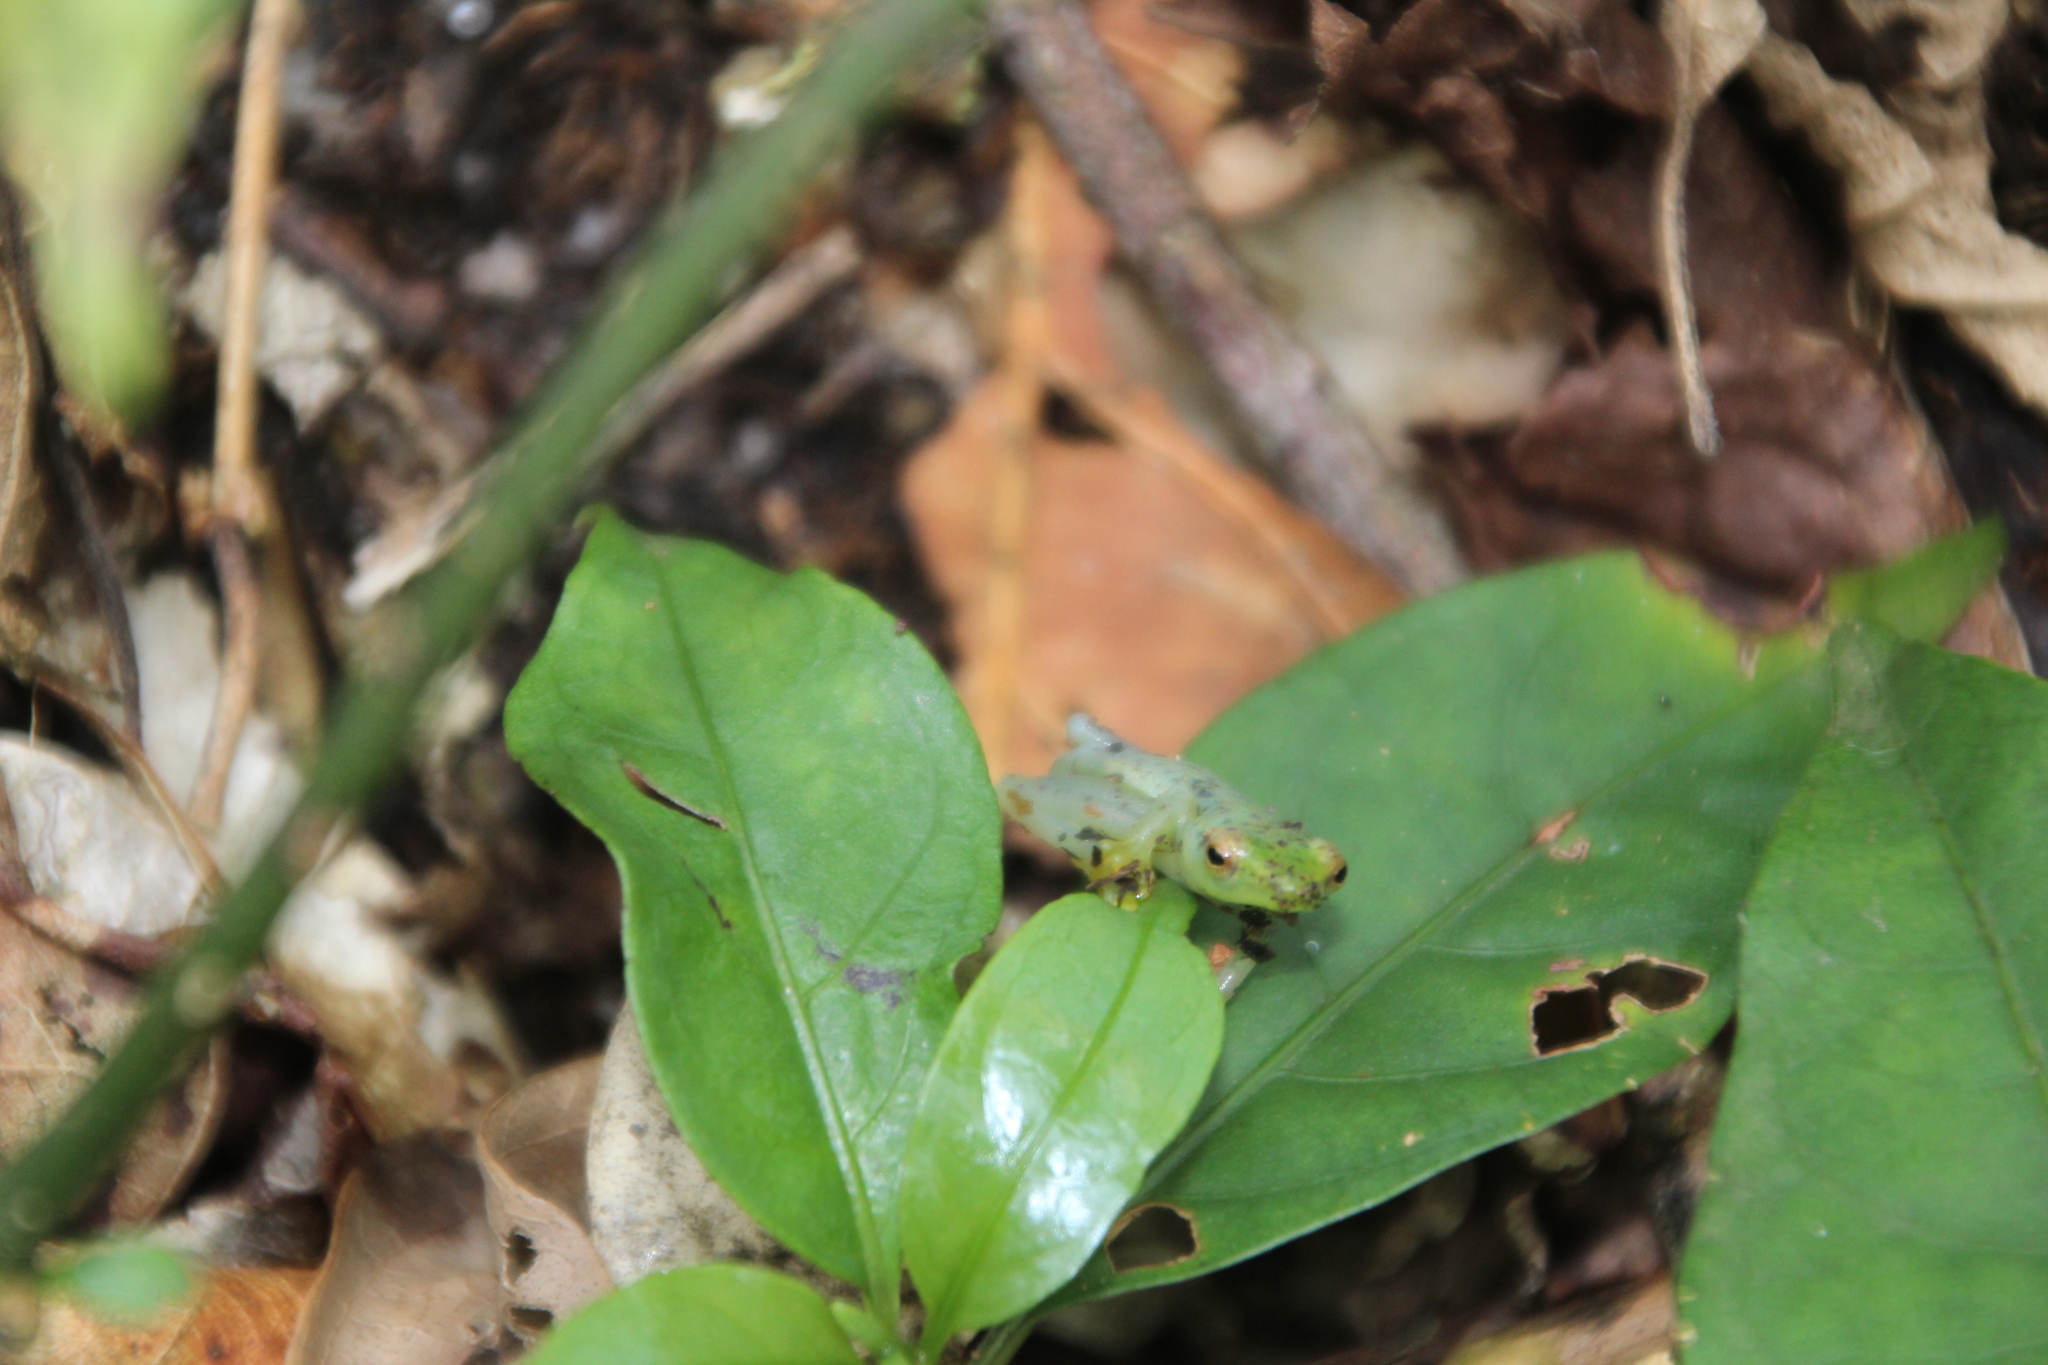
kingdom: Animalia
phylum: Chordata
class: Amphibia
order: Anura
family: Hyperoliidae
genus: Hyperolius
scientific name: Hyperolius howelli
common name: Howell's long reed frog
